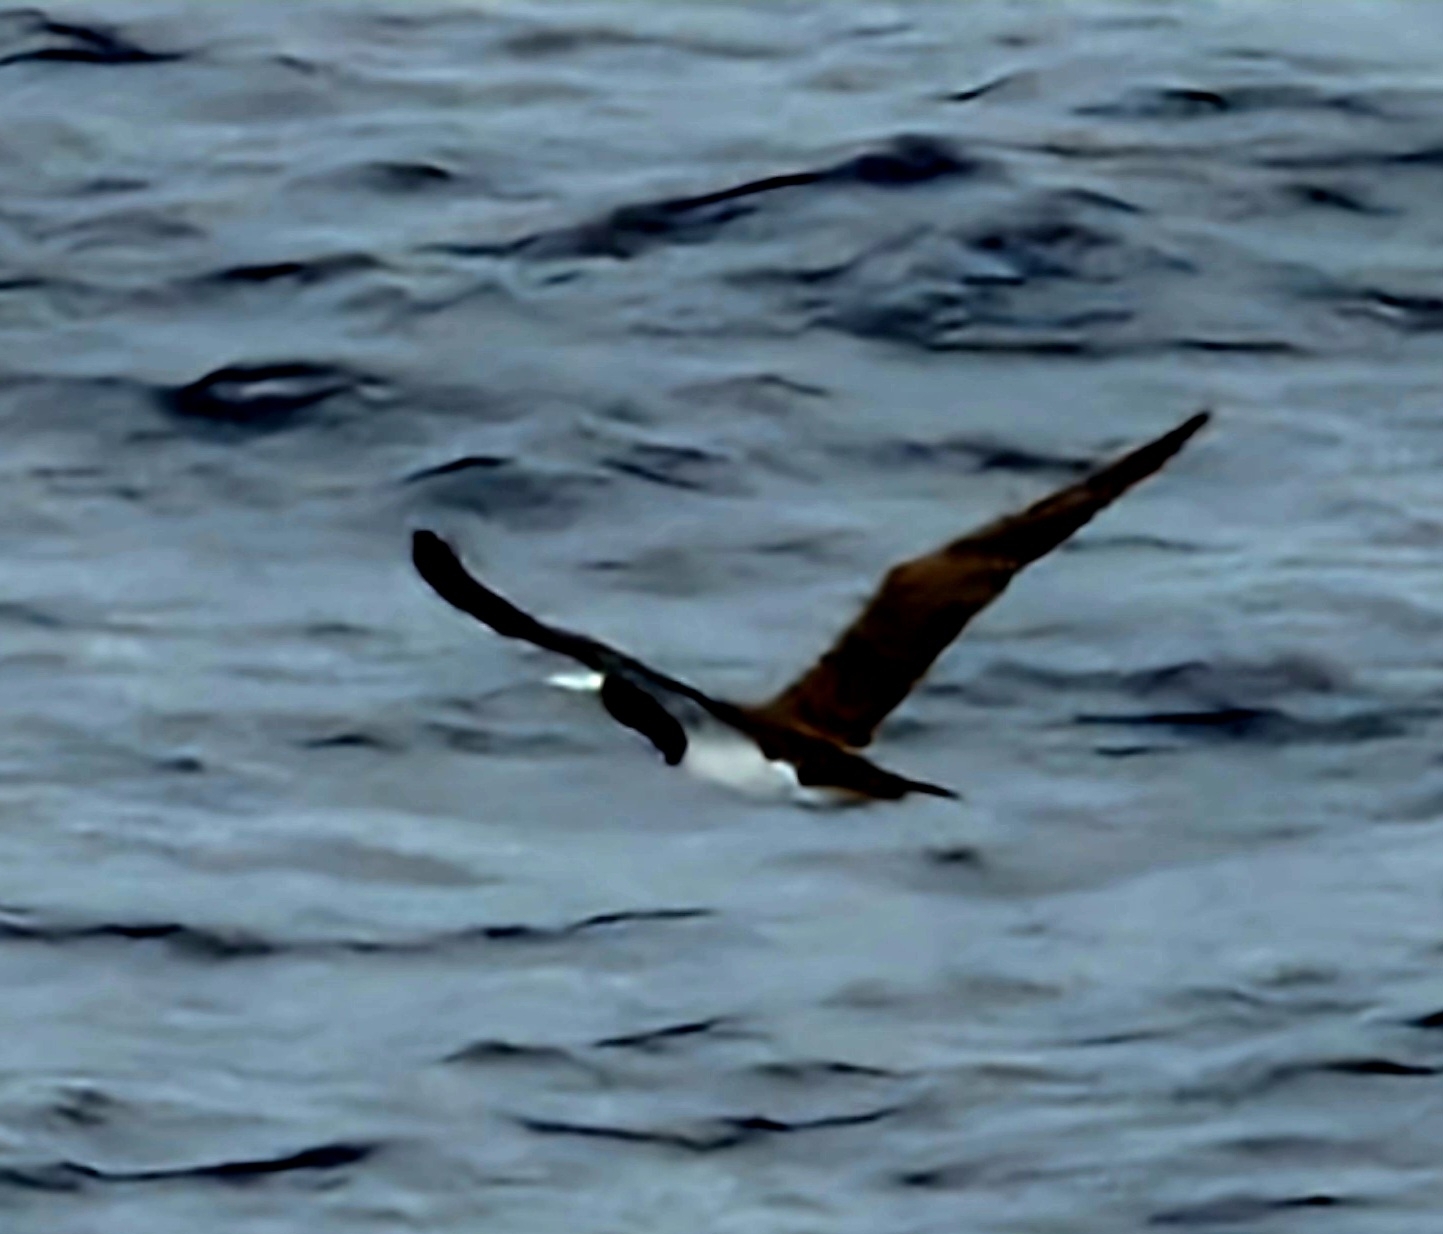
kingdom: Animalia
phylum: Chordata
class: Aves
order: Suliformes
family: Sulidae
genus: Sula
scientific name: Sula leucogaster
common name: Brown booby
